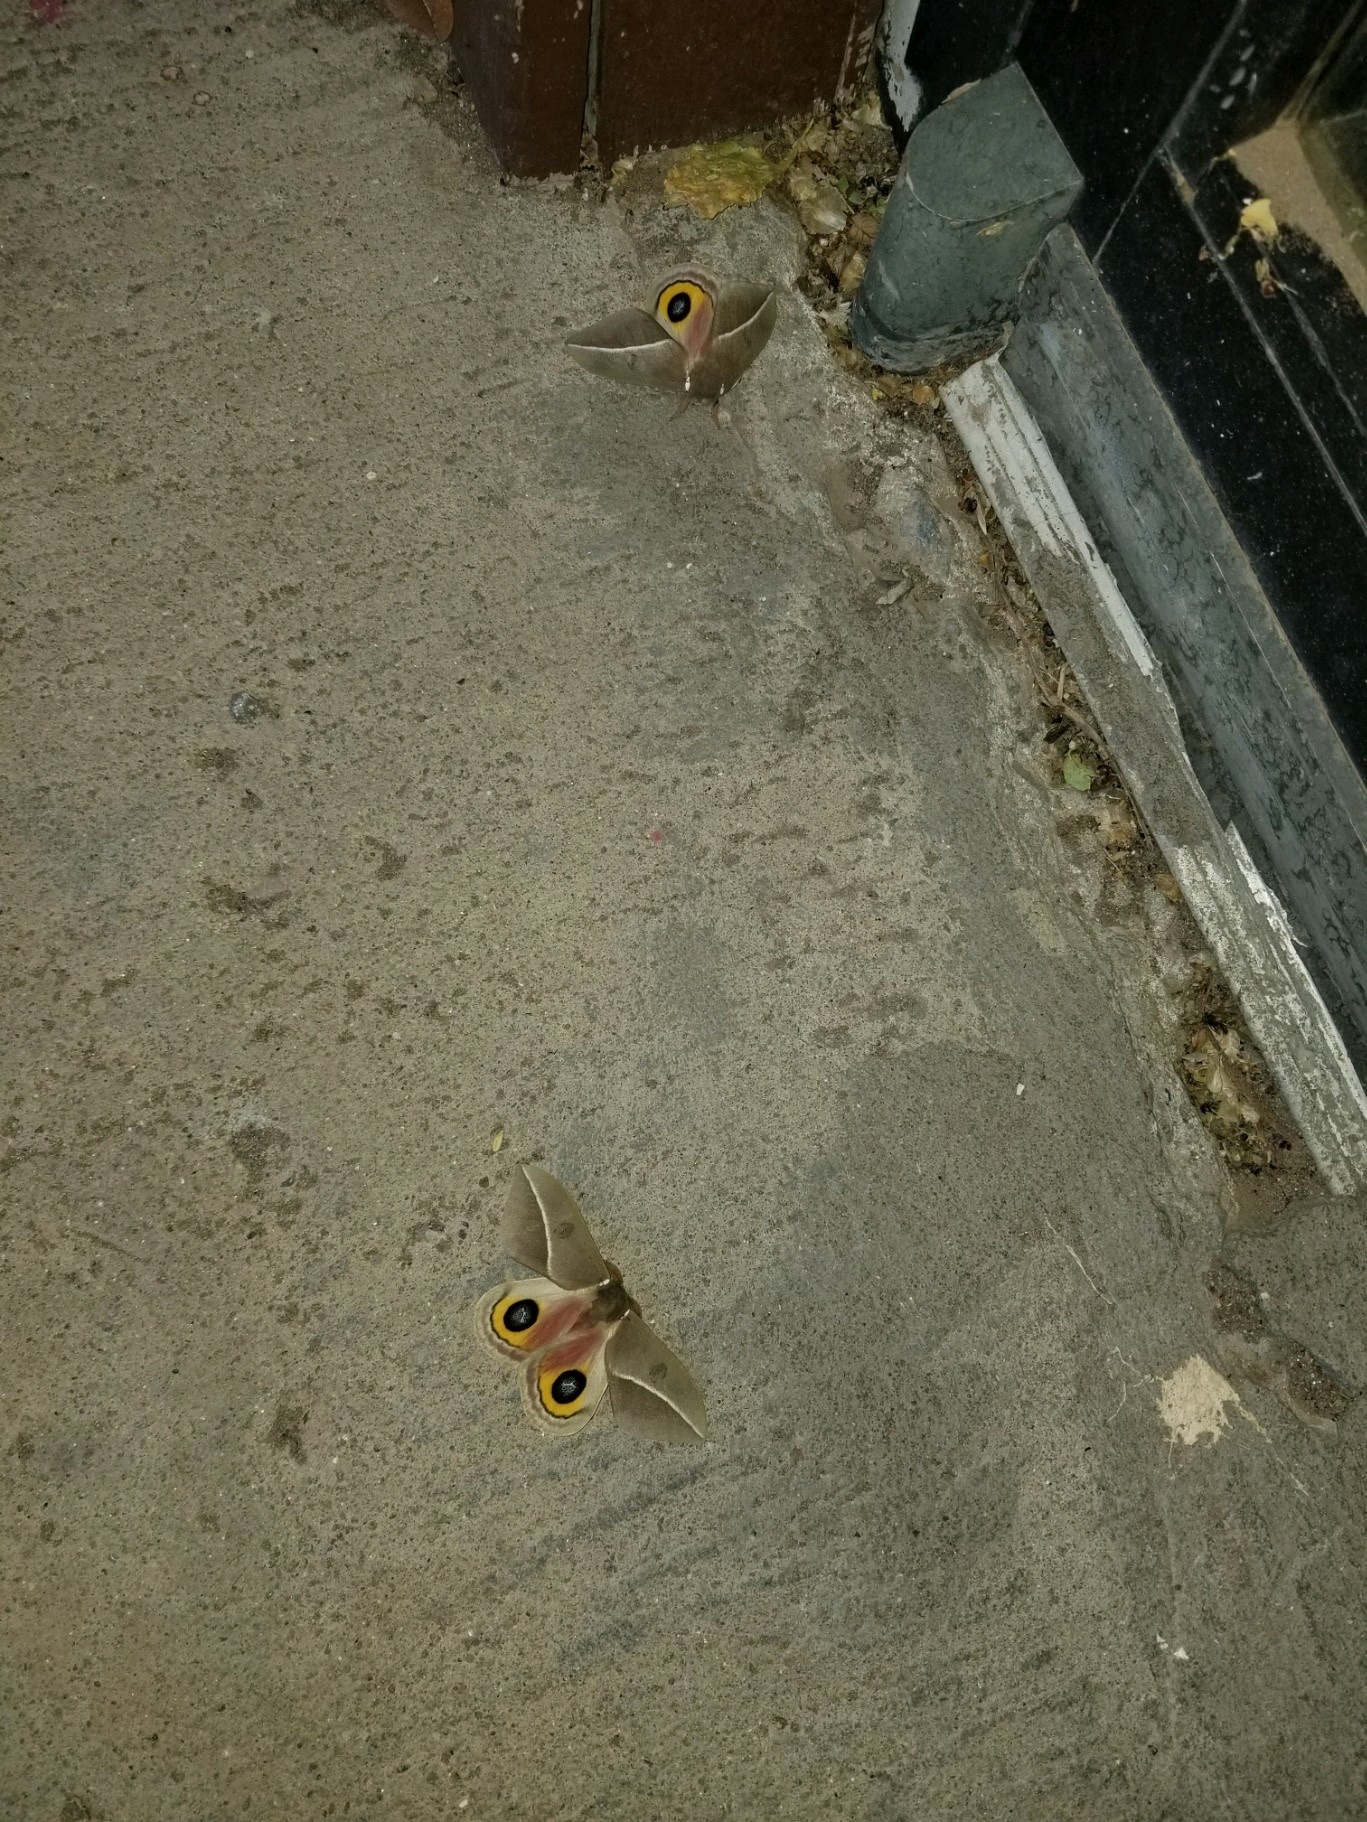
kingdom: Animalia
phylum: Arthropoda
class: Insecta
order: Lepidoptera
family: Saturniidae
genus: Automeris
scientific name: Automeris zephyria
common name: Zephyr eyed silkmoth
